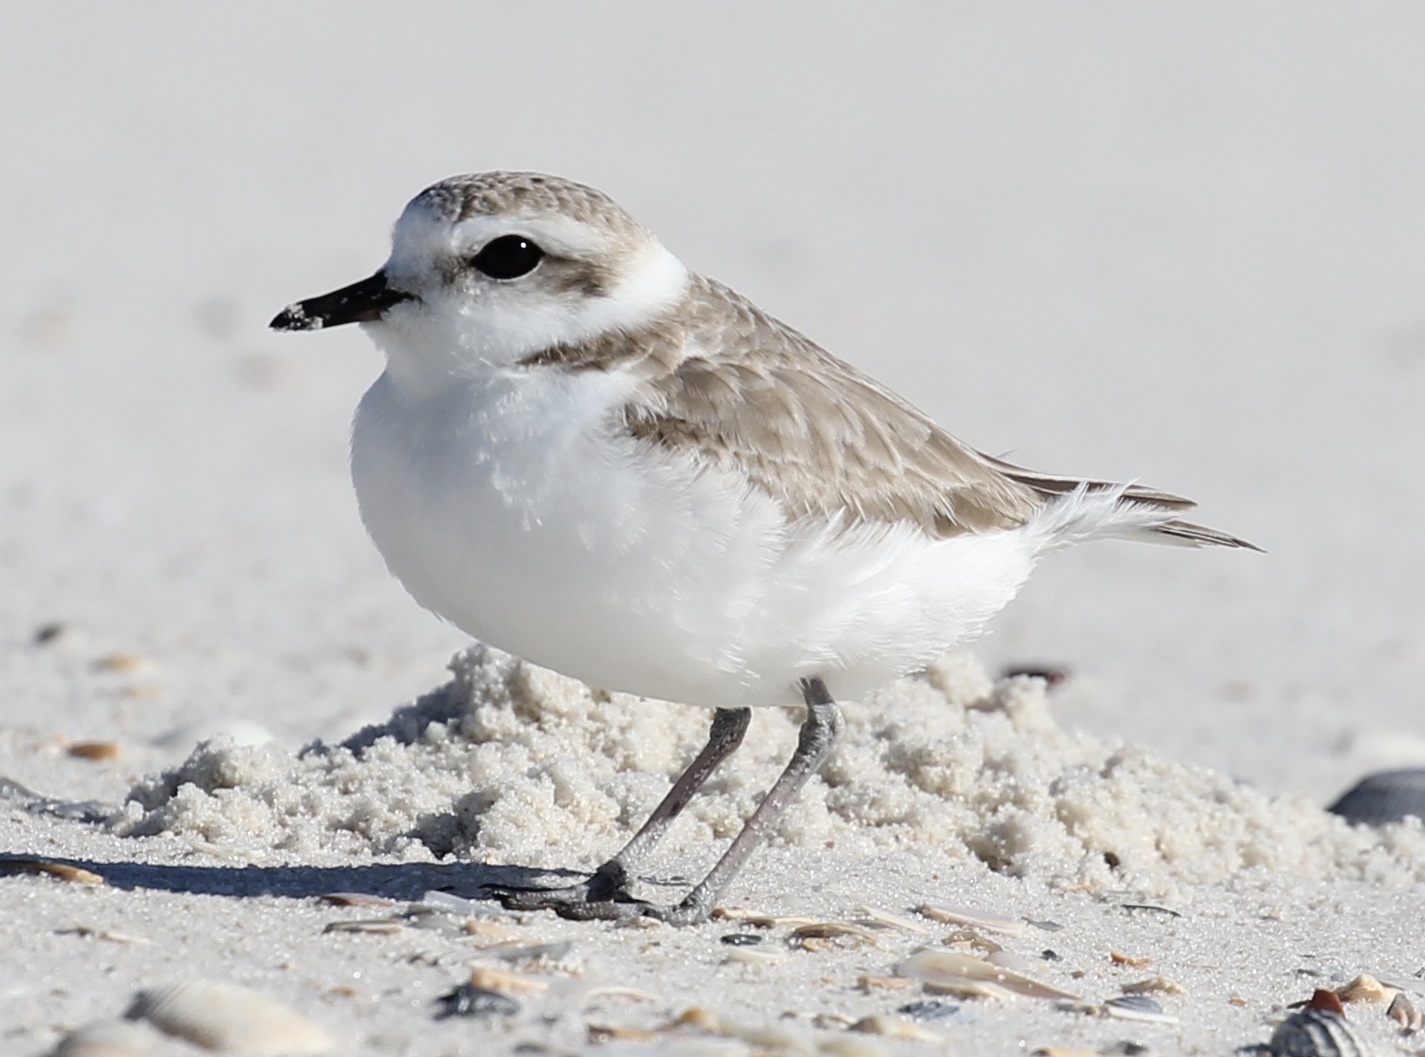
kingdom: Animalia
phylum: Chordata
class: Aves
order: Charadriiformes
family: Charadriidae
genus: Anarhynchus
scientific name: Anarhynchus
